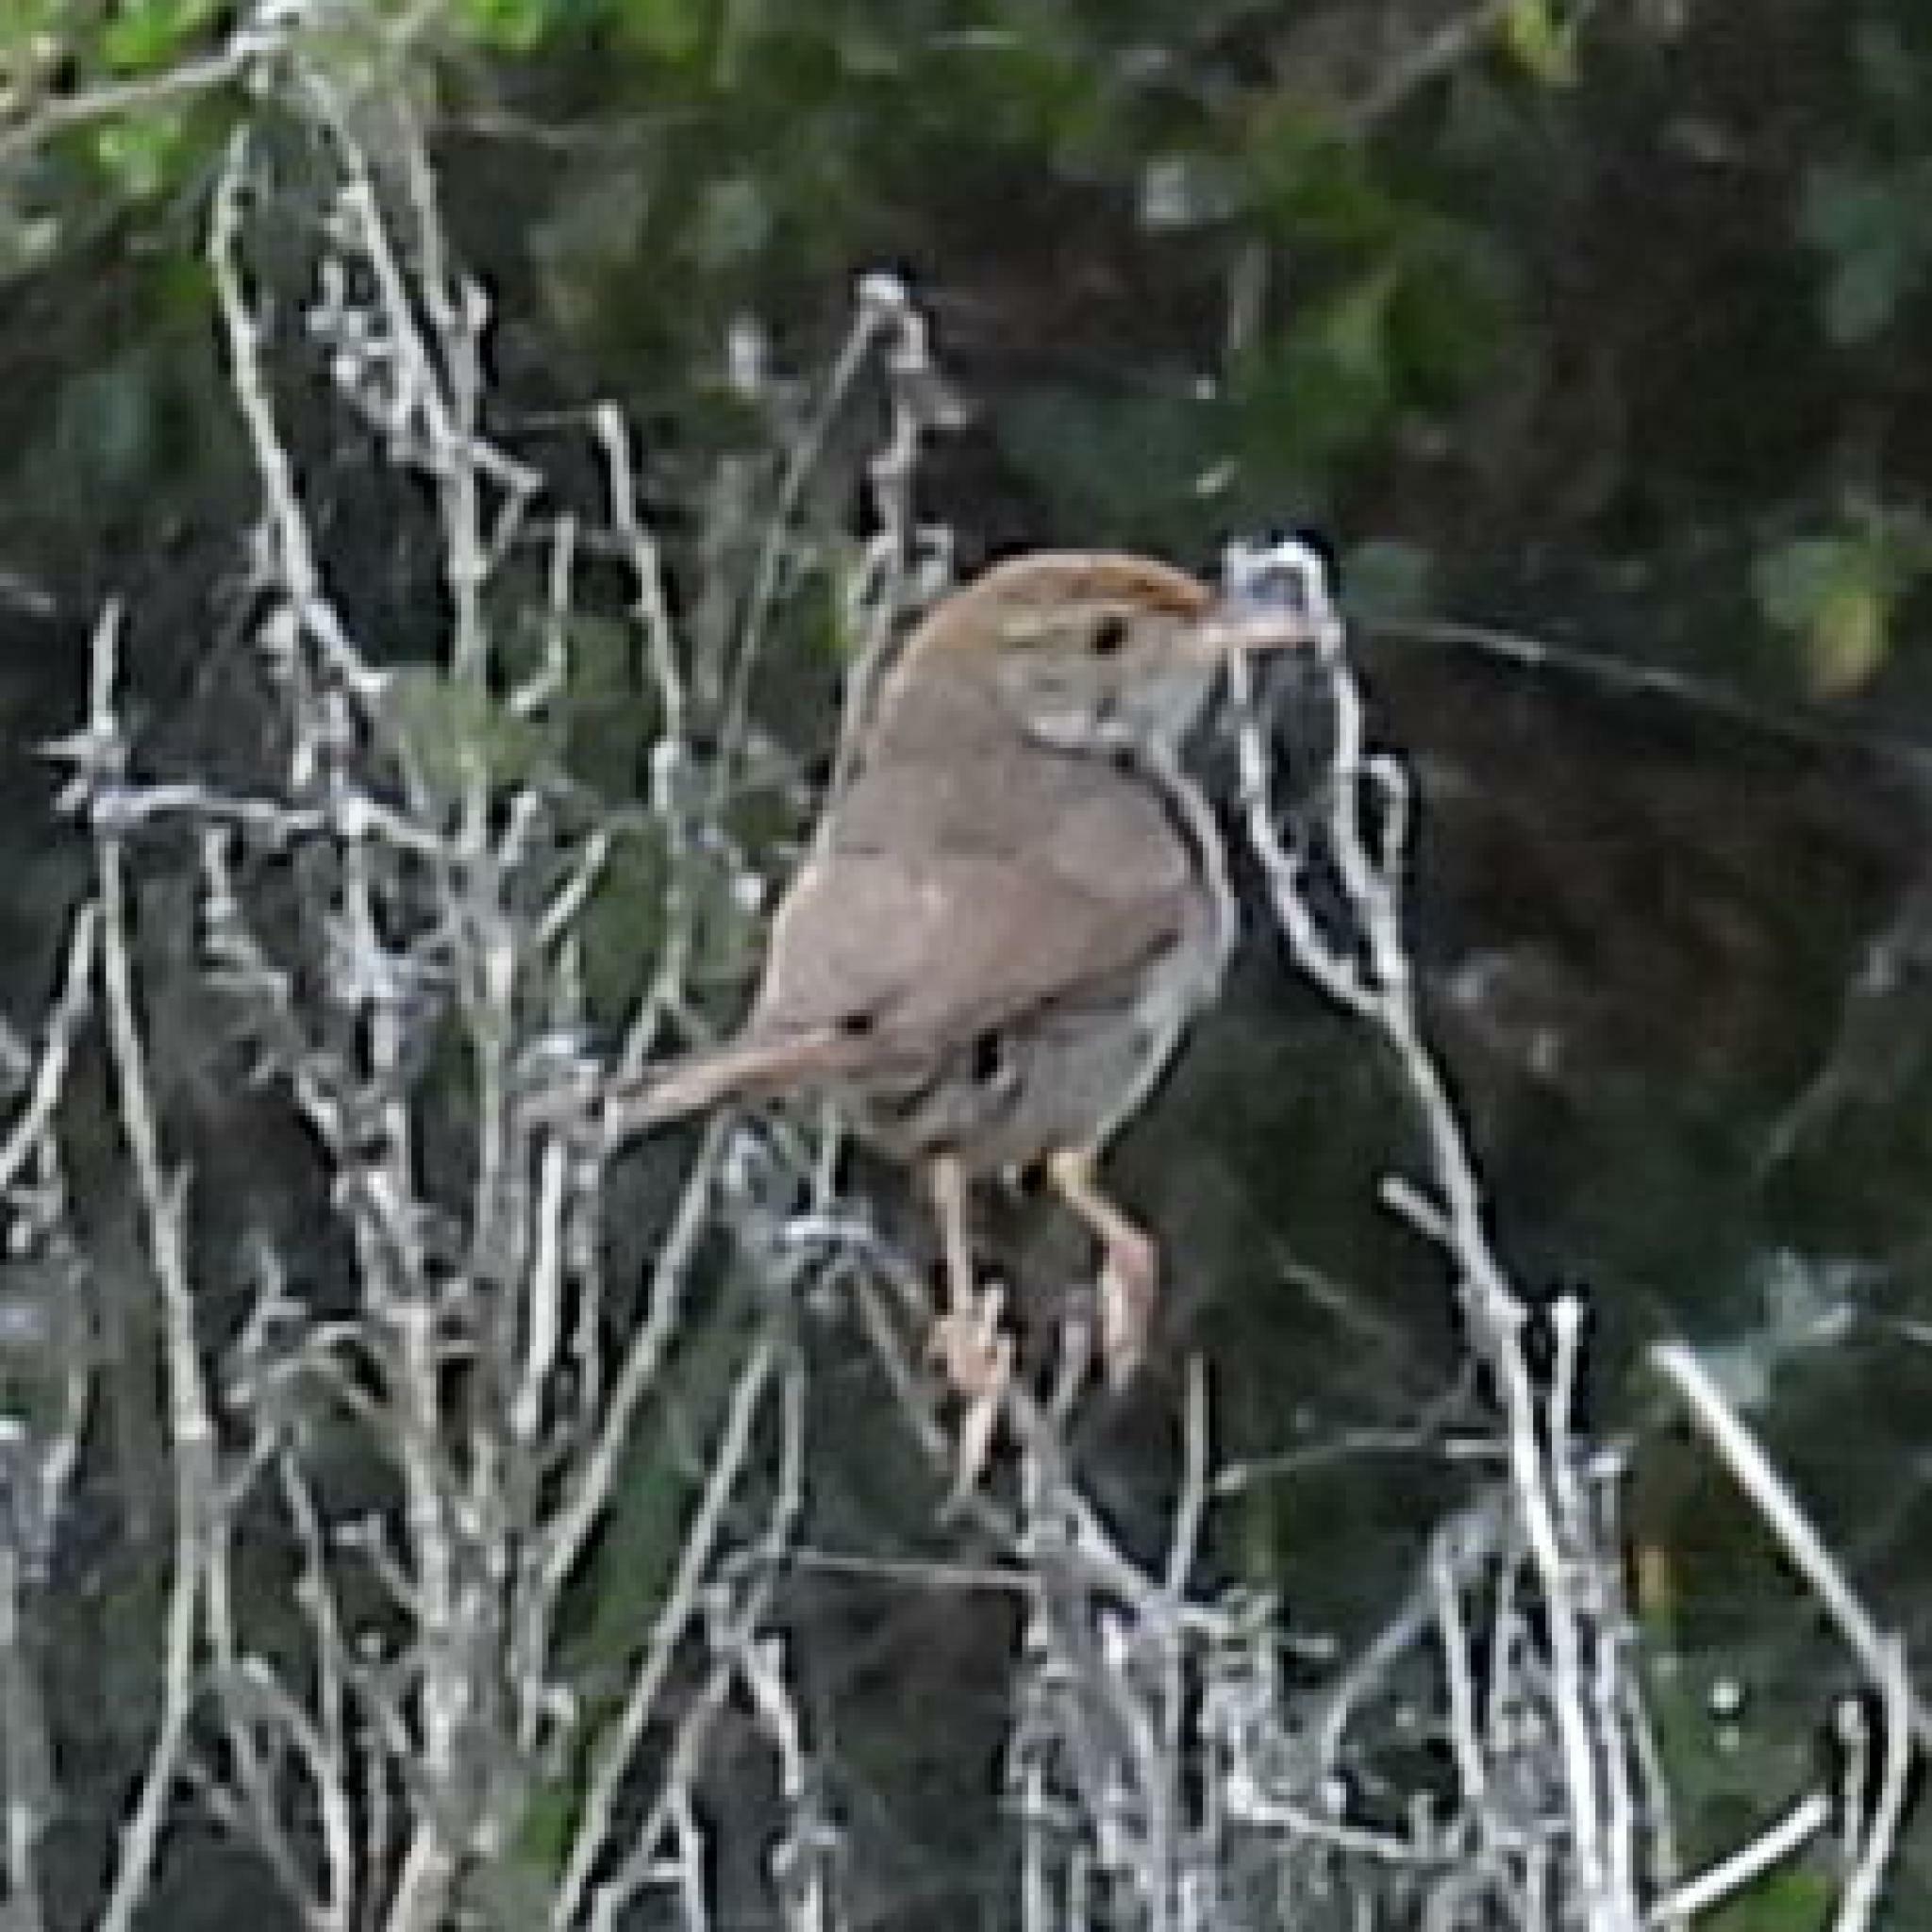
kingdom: Animalia
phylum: Chordata
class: Aves
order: Passeriformes
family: Cisticolidae
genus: Cisticola
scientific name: Cisticola fulvicapilla
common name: Neddicky
